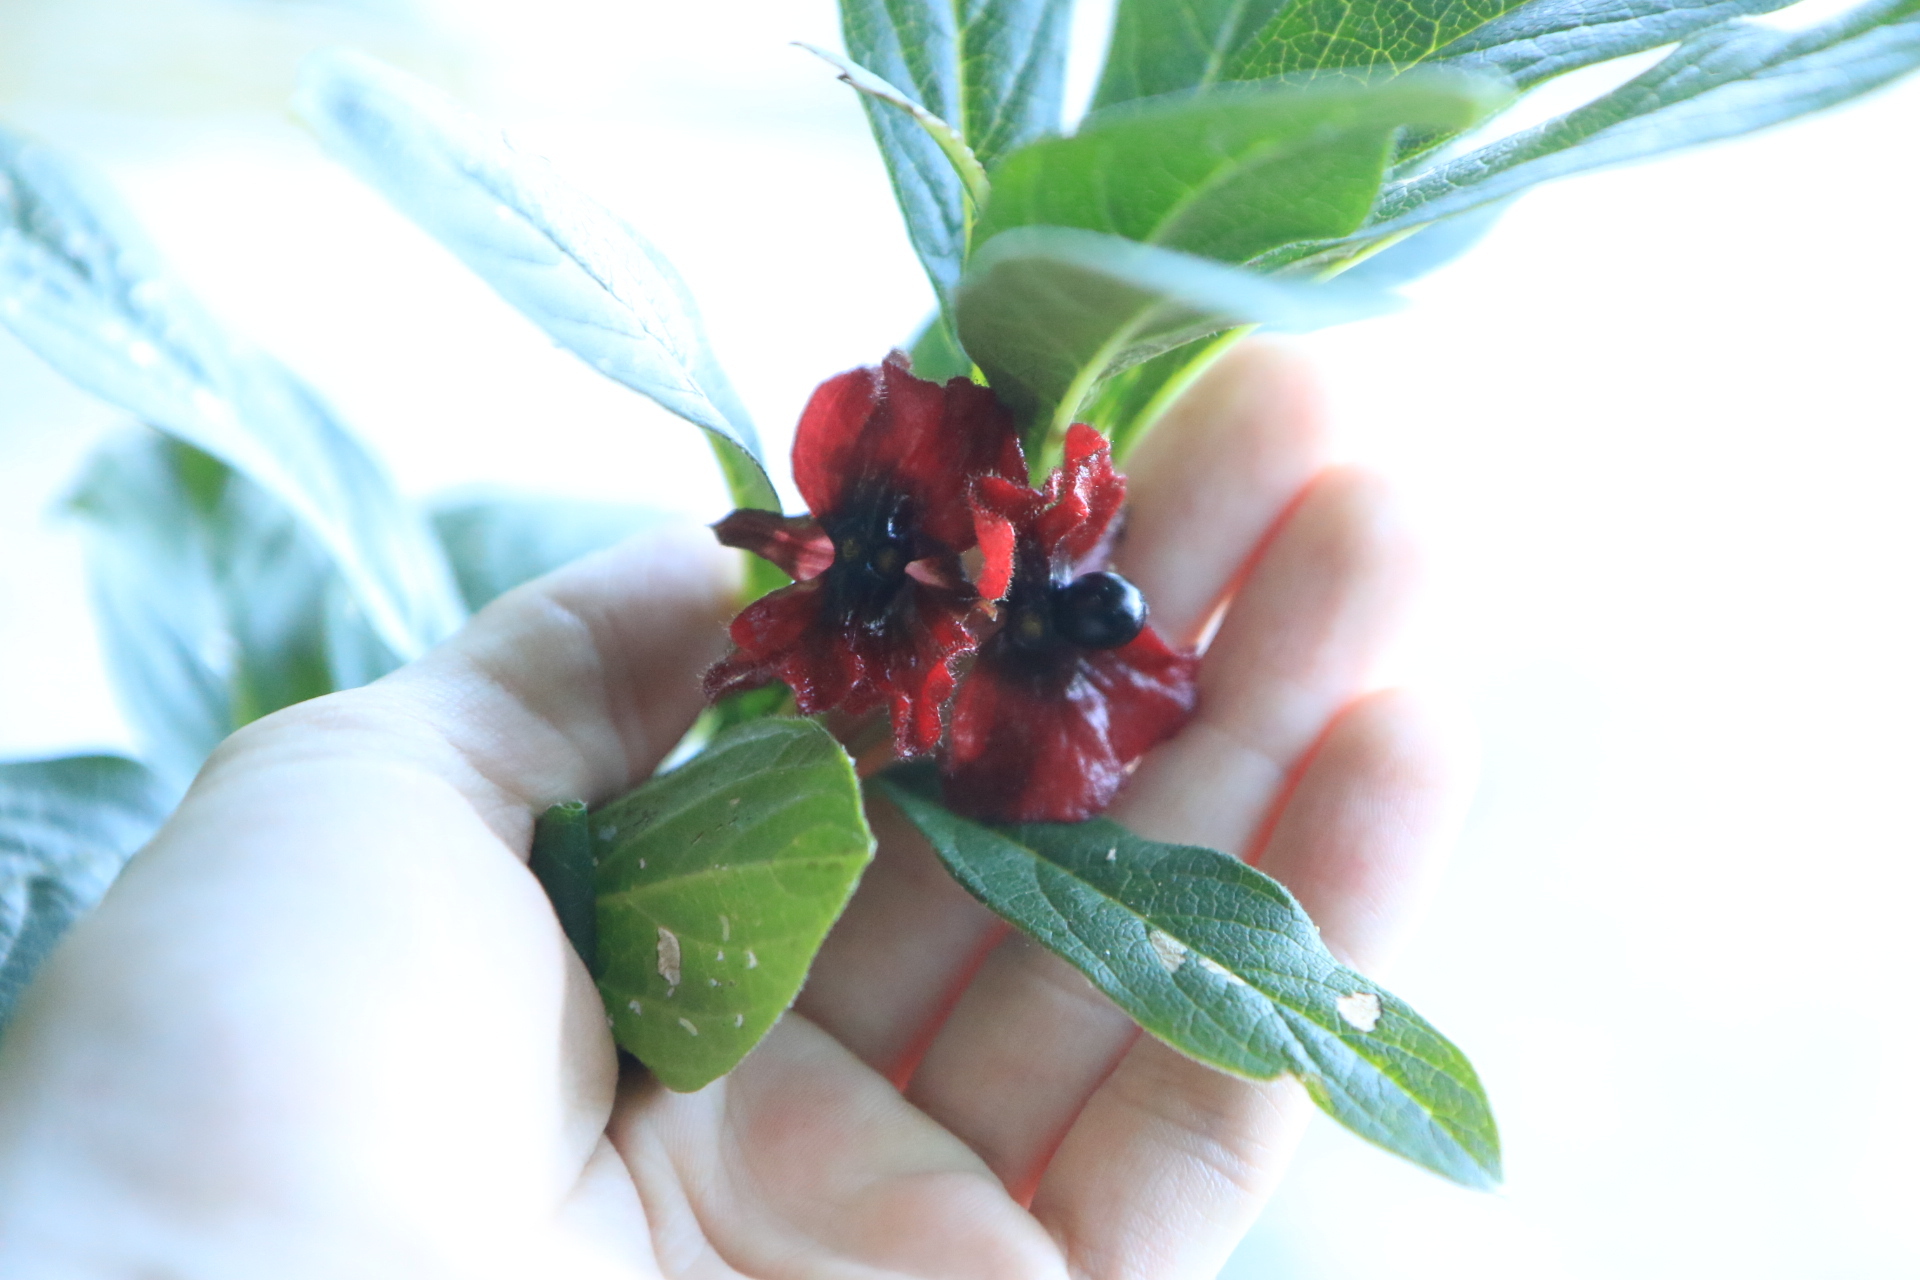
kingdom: Plantae
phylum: Tracheophyta
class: Magnoliopsida
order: Dipsacales
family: Caprifoliaceae
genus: Lonicera
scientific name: Lonicera involucrata
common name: Californian honeysuckle
